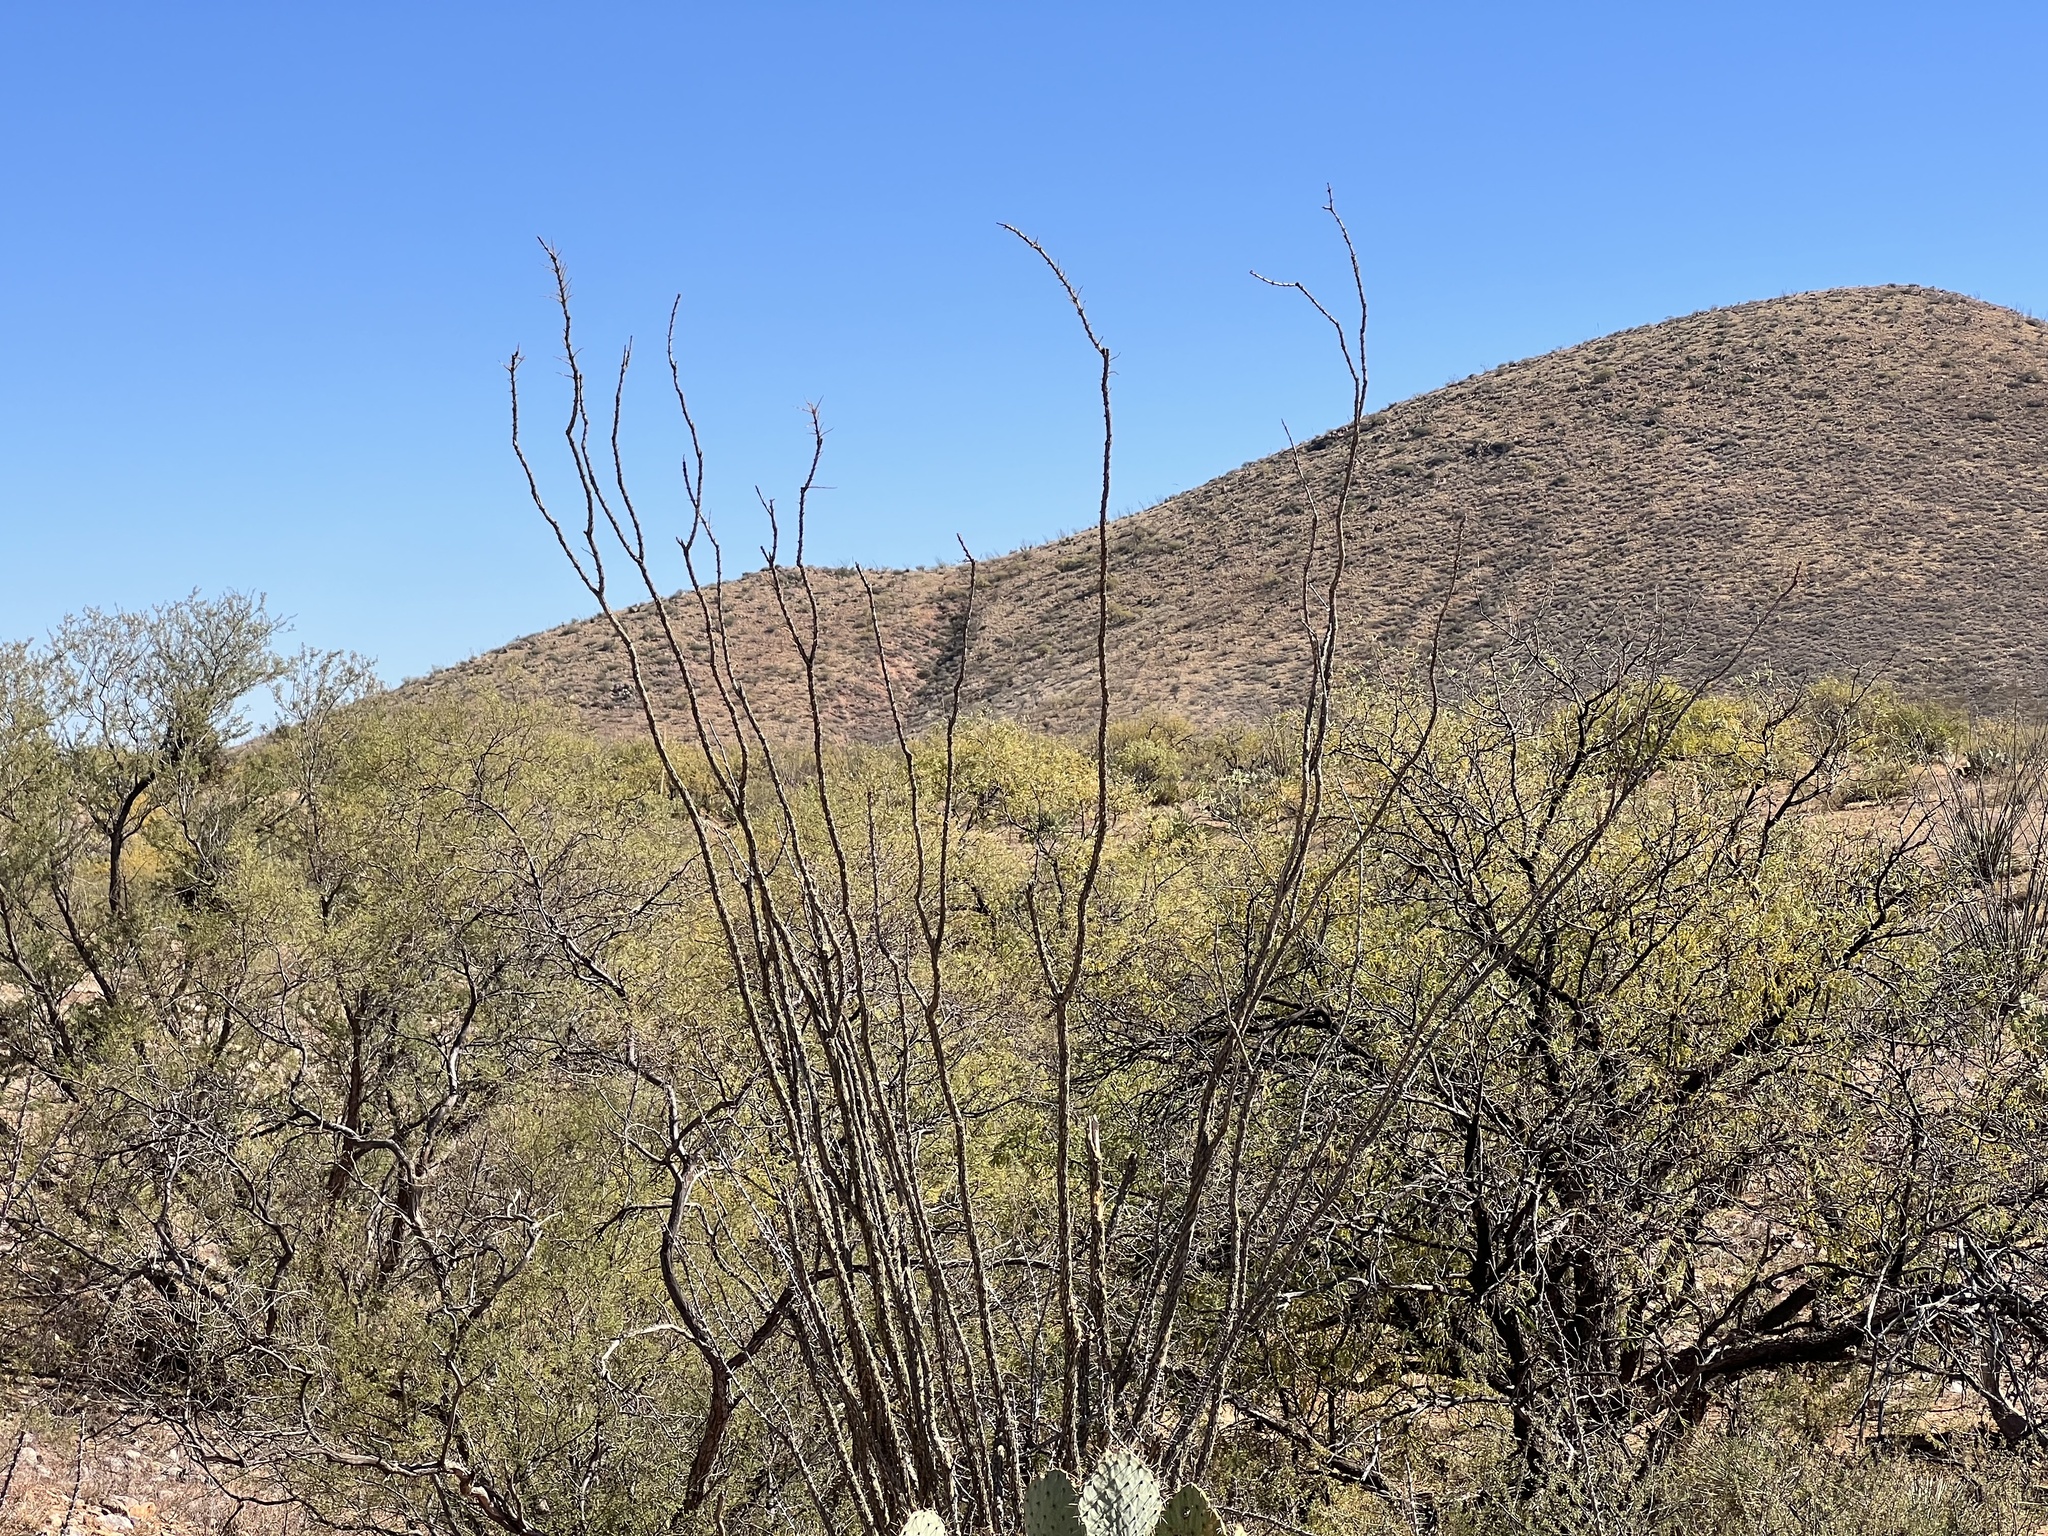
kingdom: Plantae
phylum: Tracheophyta
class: Magnoliopsida
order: Ericales
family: Fouquieriaceae
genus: Fouquieria
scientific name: Fouquieria splendens
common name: Vine-cactus
